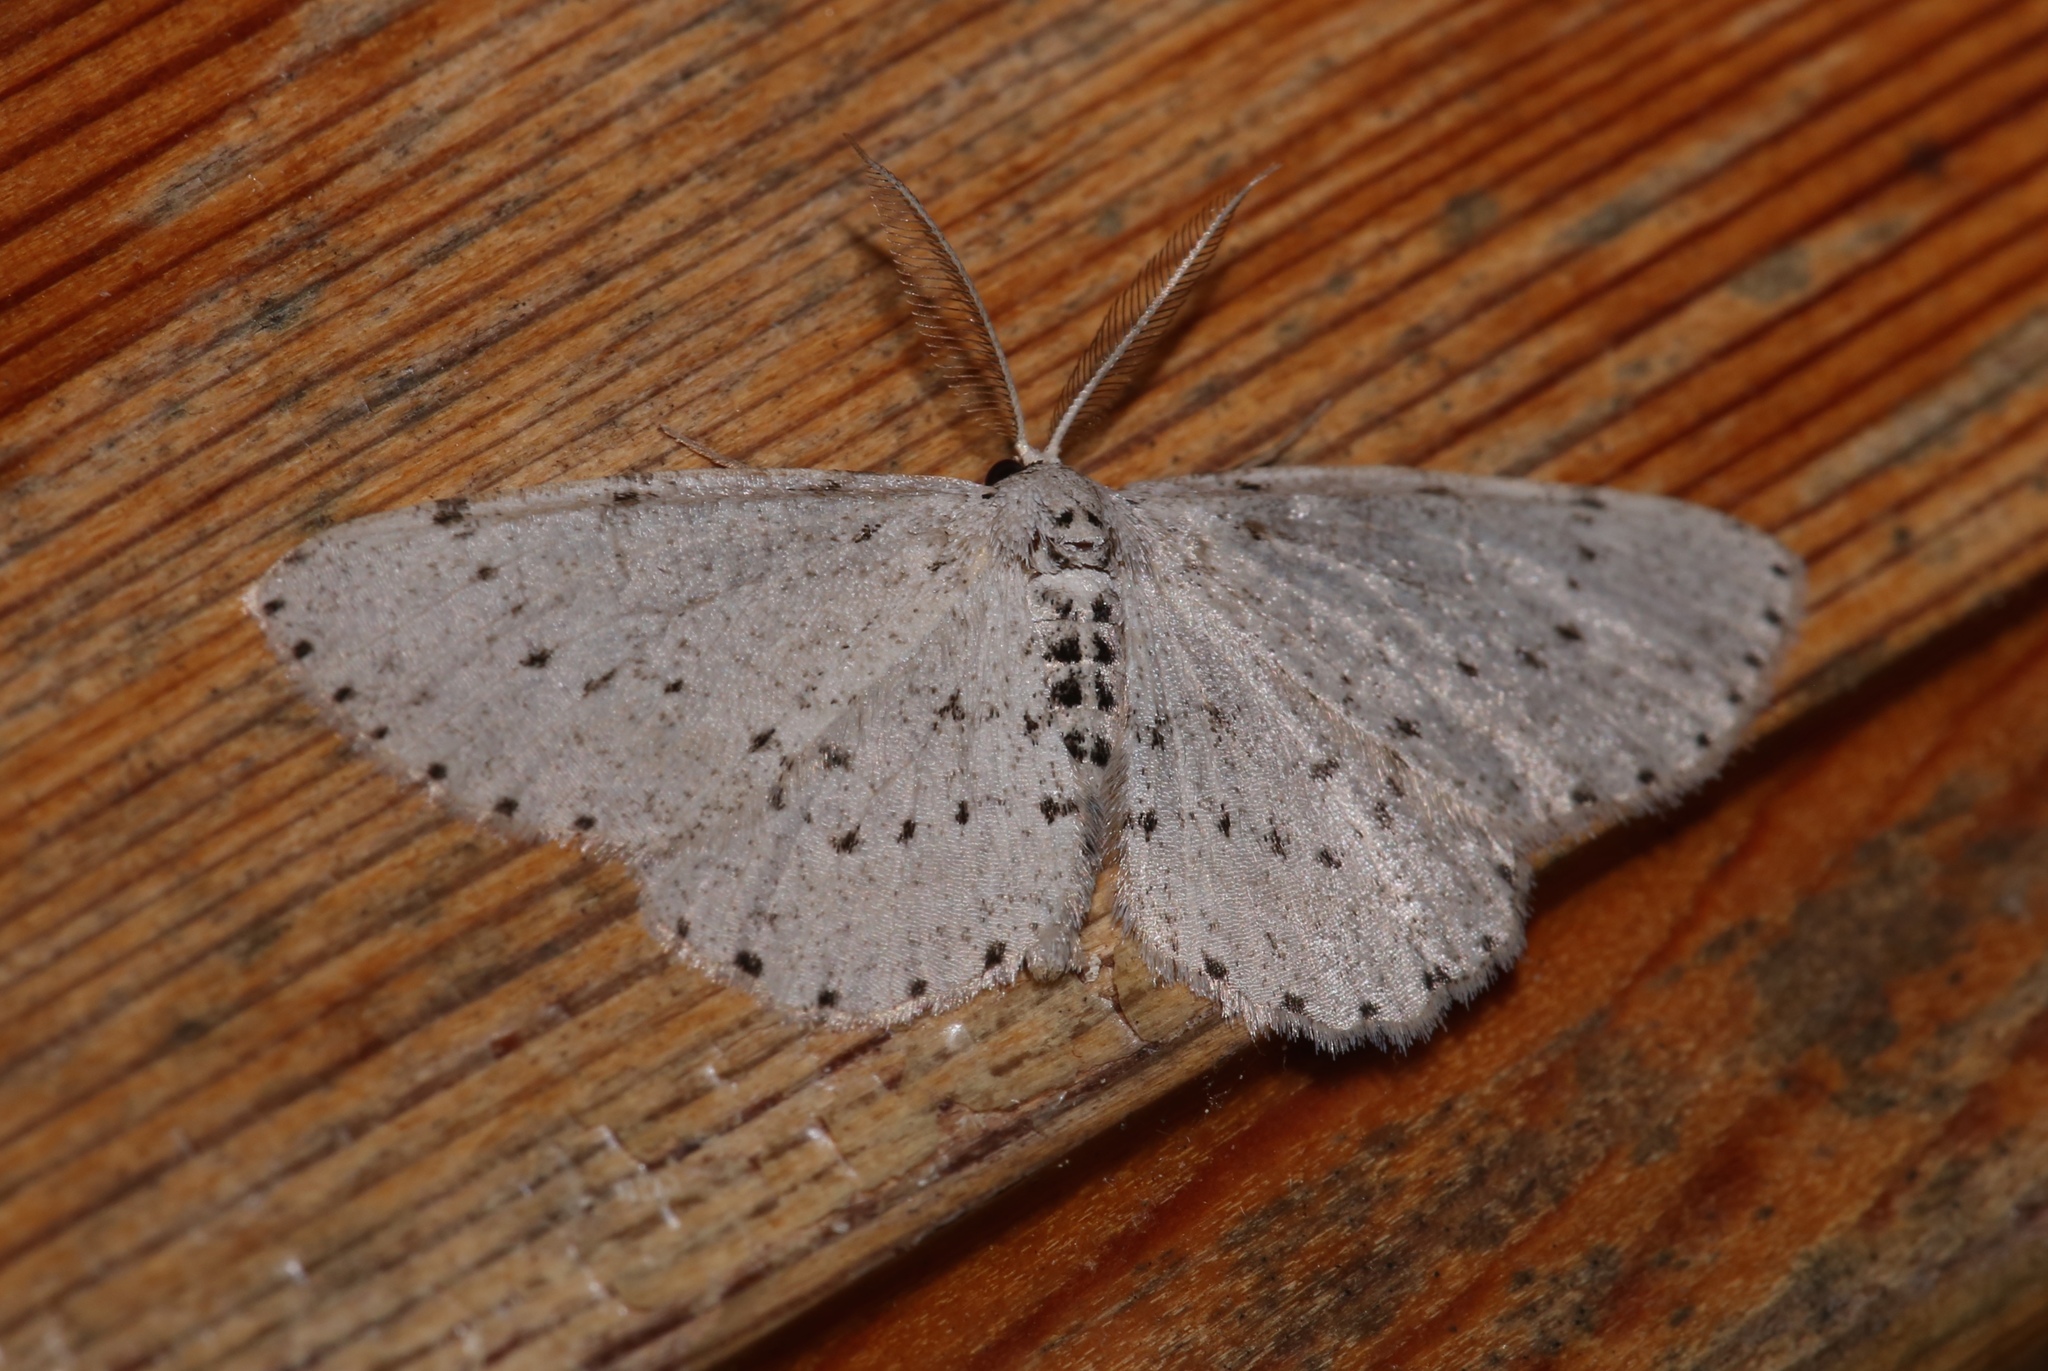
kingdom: Animalia
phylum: Arthropoda
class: Insecta
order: Lepidoptera
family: Geometridae
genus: Glena
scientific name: Glena cribrataria
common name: Dotted gray
